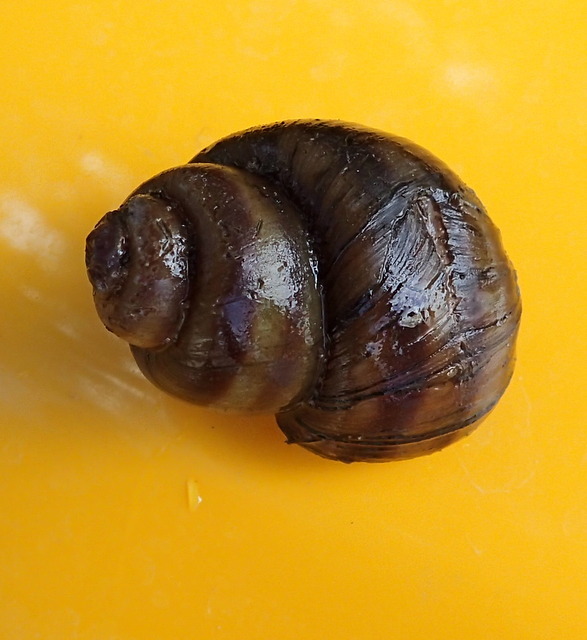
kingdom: Animalia
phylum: Mollusca
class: Gastropoda
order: Architaenioglossa
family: Viviparidae
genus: Callinina
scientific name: Callinina georgiana
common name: Banded mystery snail
